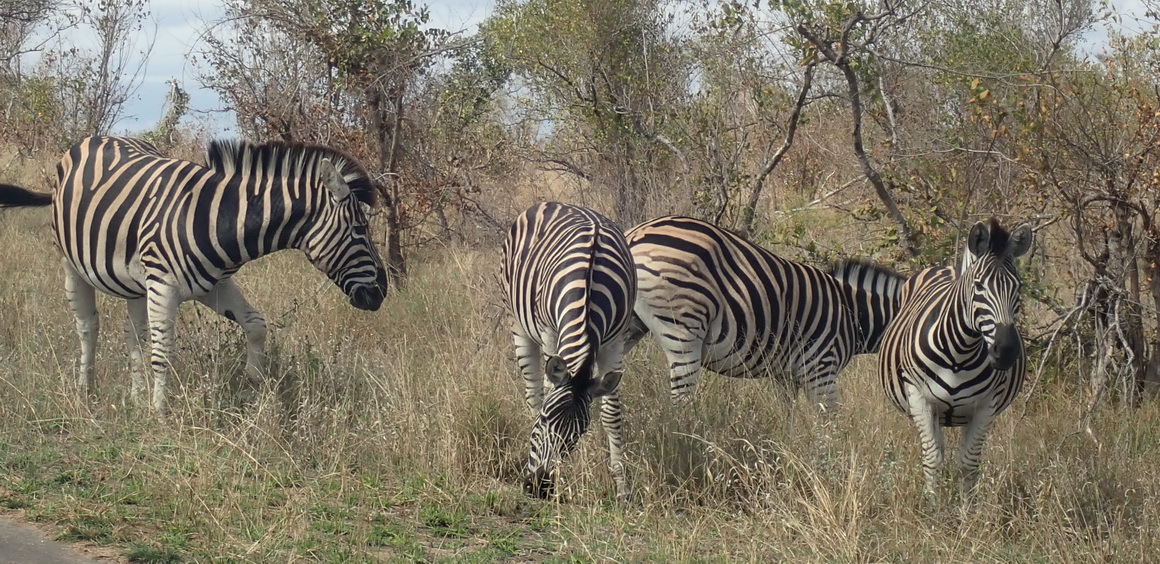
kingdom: Animalia
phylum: Chordata
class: Mammalia
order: Perissodactyla
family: Equidae
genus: Equus
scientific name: Equus quagga
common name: Plains zebra
